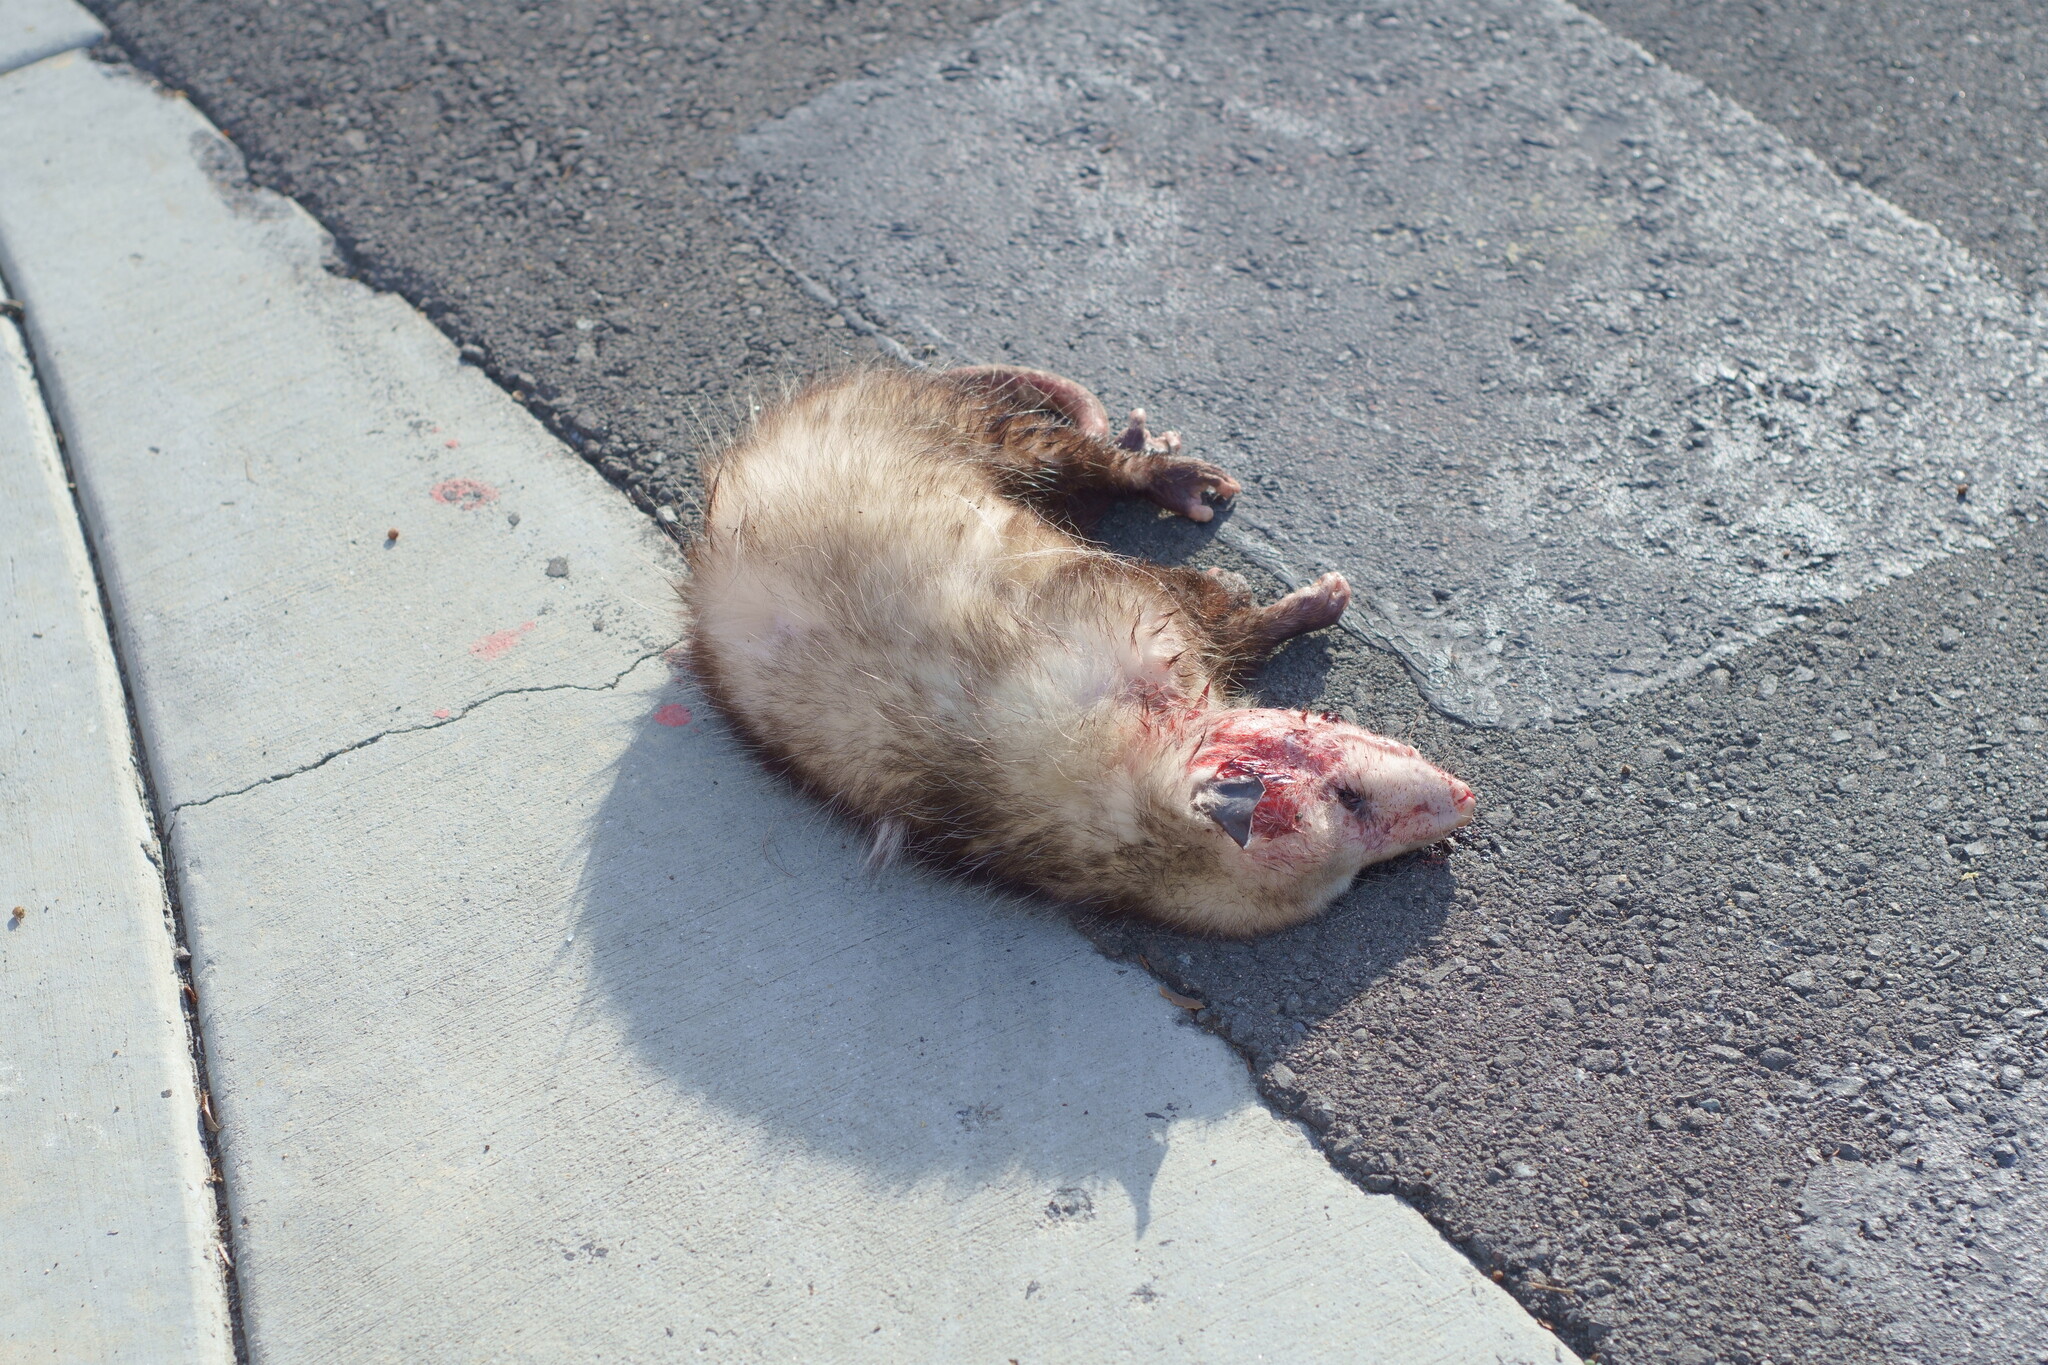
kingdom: Animalia
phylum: Chordata
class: Mammalia
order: Didelphimorphia
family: Didelphidae
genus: Didelphis
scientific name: Didelphis virginiana
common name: Virginia opossum
